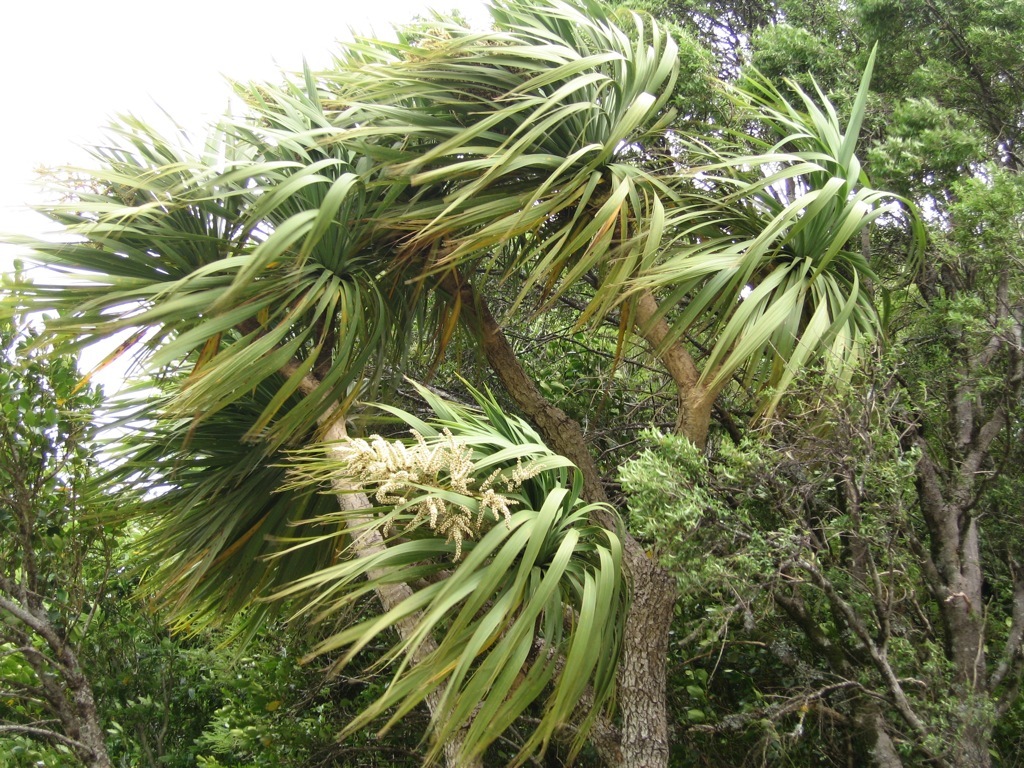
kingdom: Plantae
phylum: Tracheophyta
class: Liliopsida
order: Asparagales
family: Asparagaceae
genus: Cordyline
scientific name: Cordyline australis
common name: Cabbage-palm
